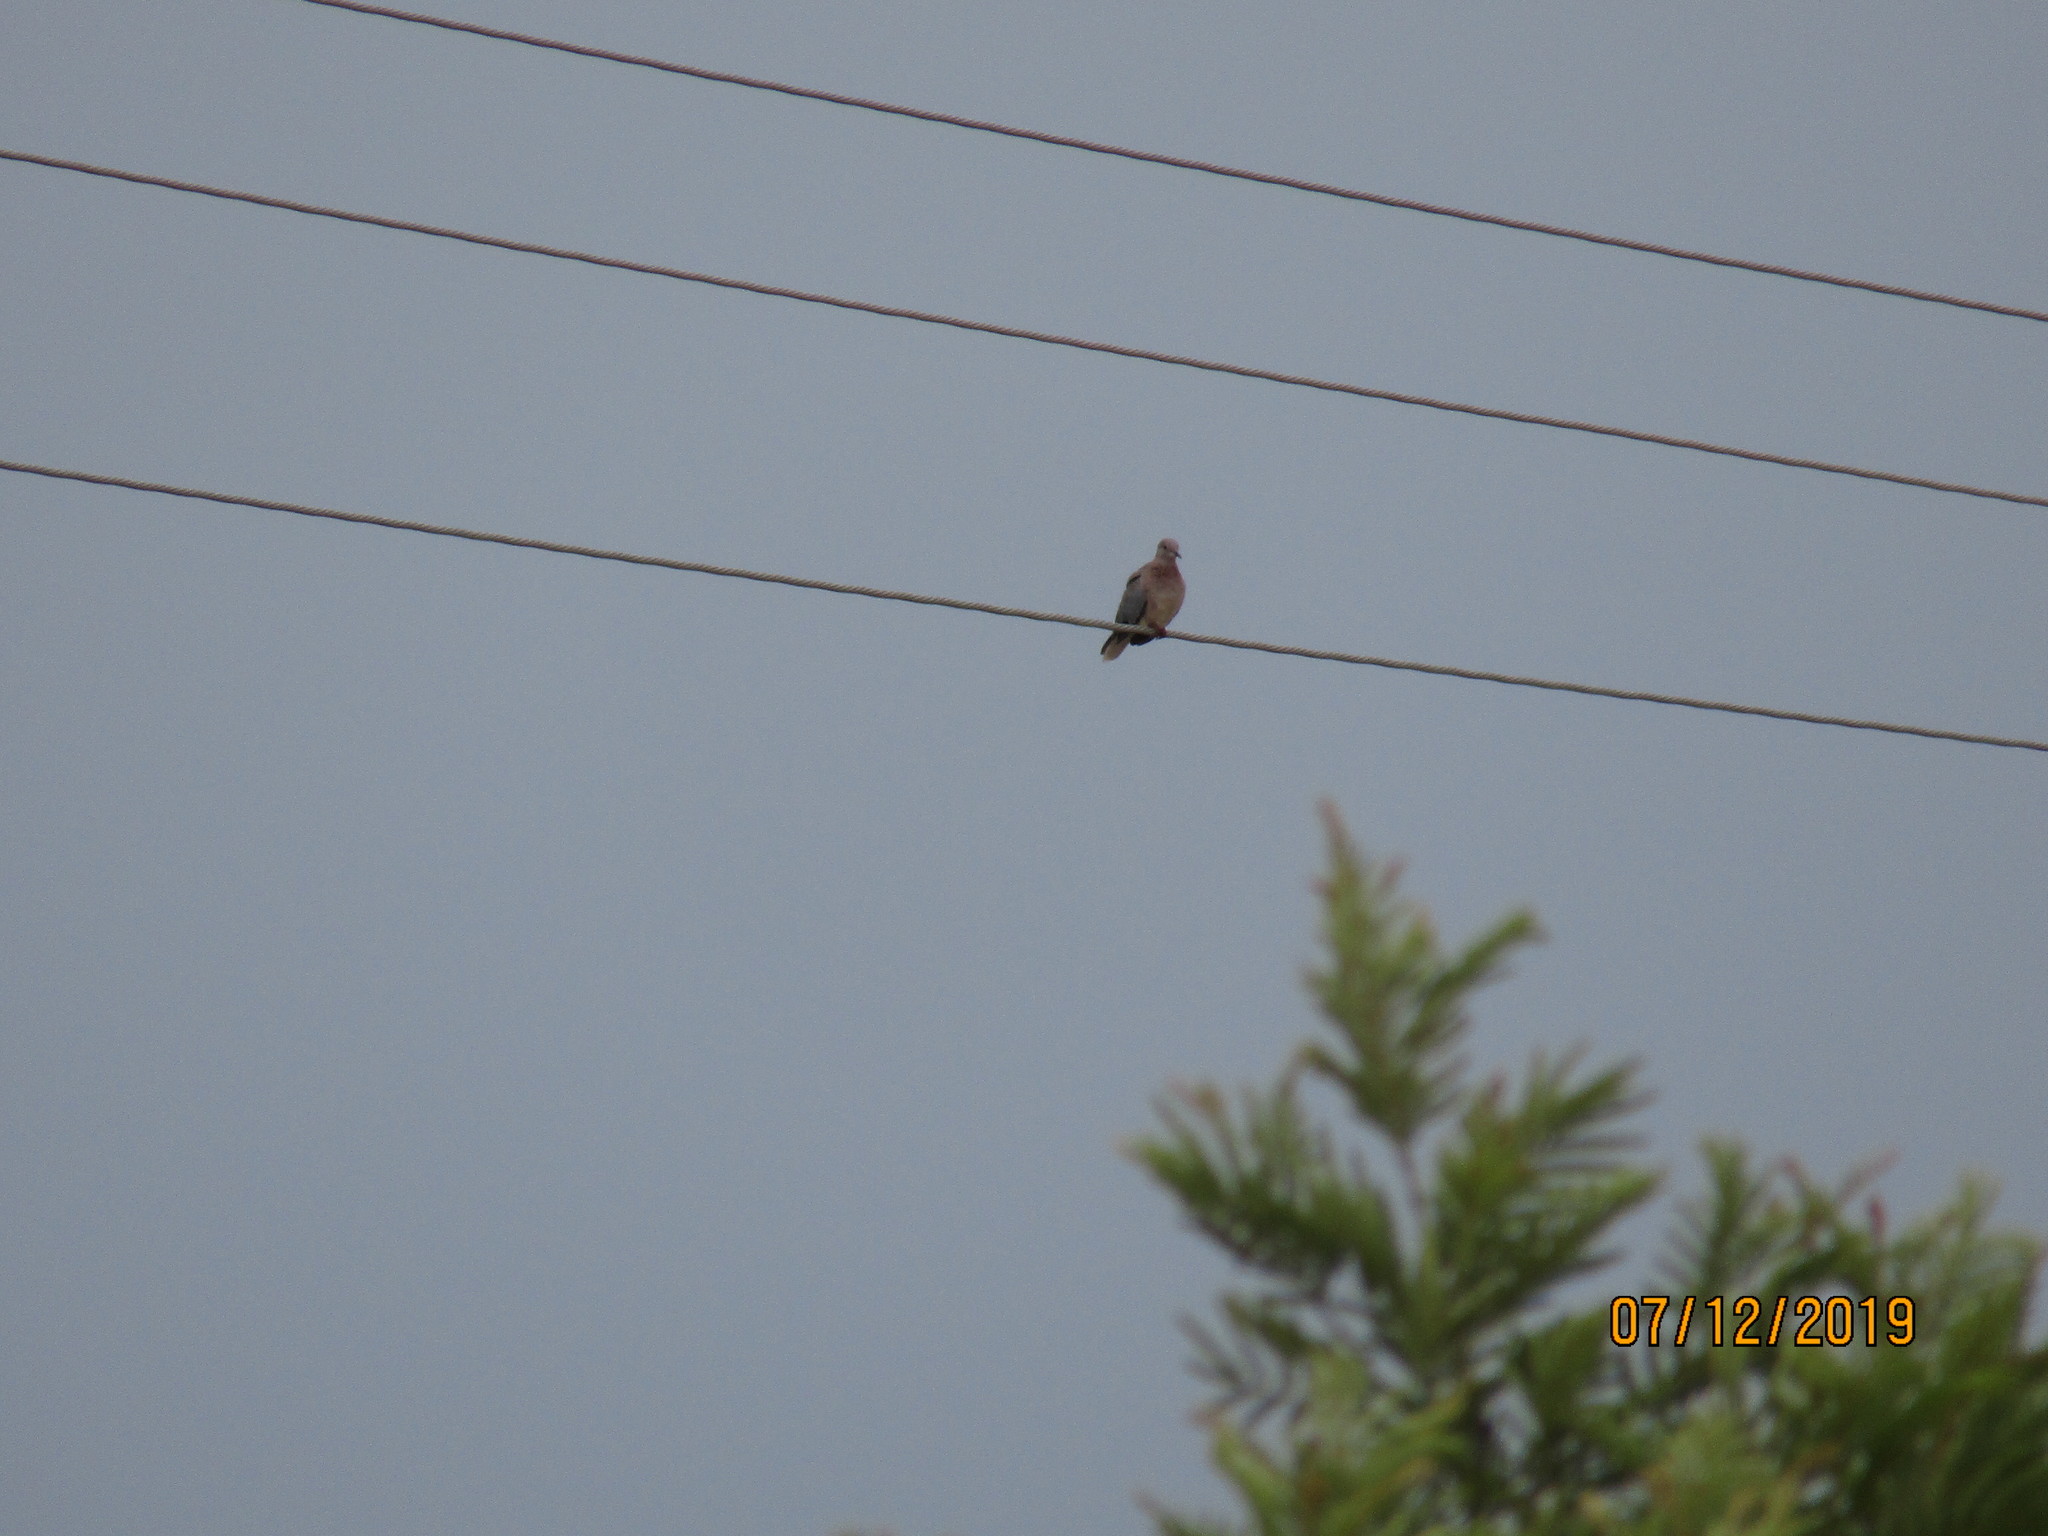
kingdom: Animalia
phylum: Chordata
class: Aves
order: Columbiformes
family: Columbidae
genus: Spilopelia
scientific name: Spilopelia senegalensis
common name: Laughing dove
